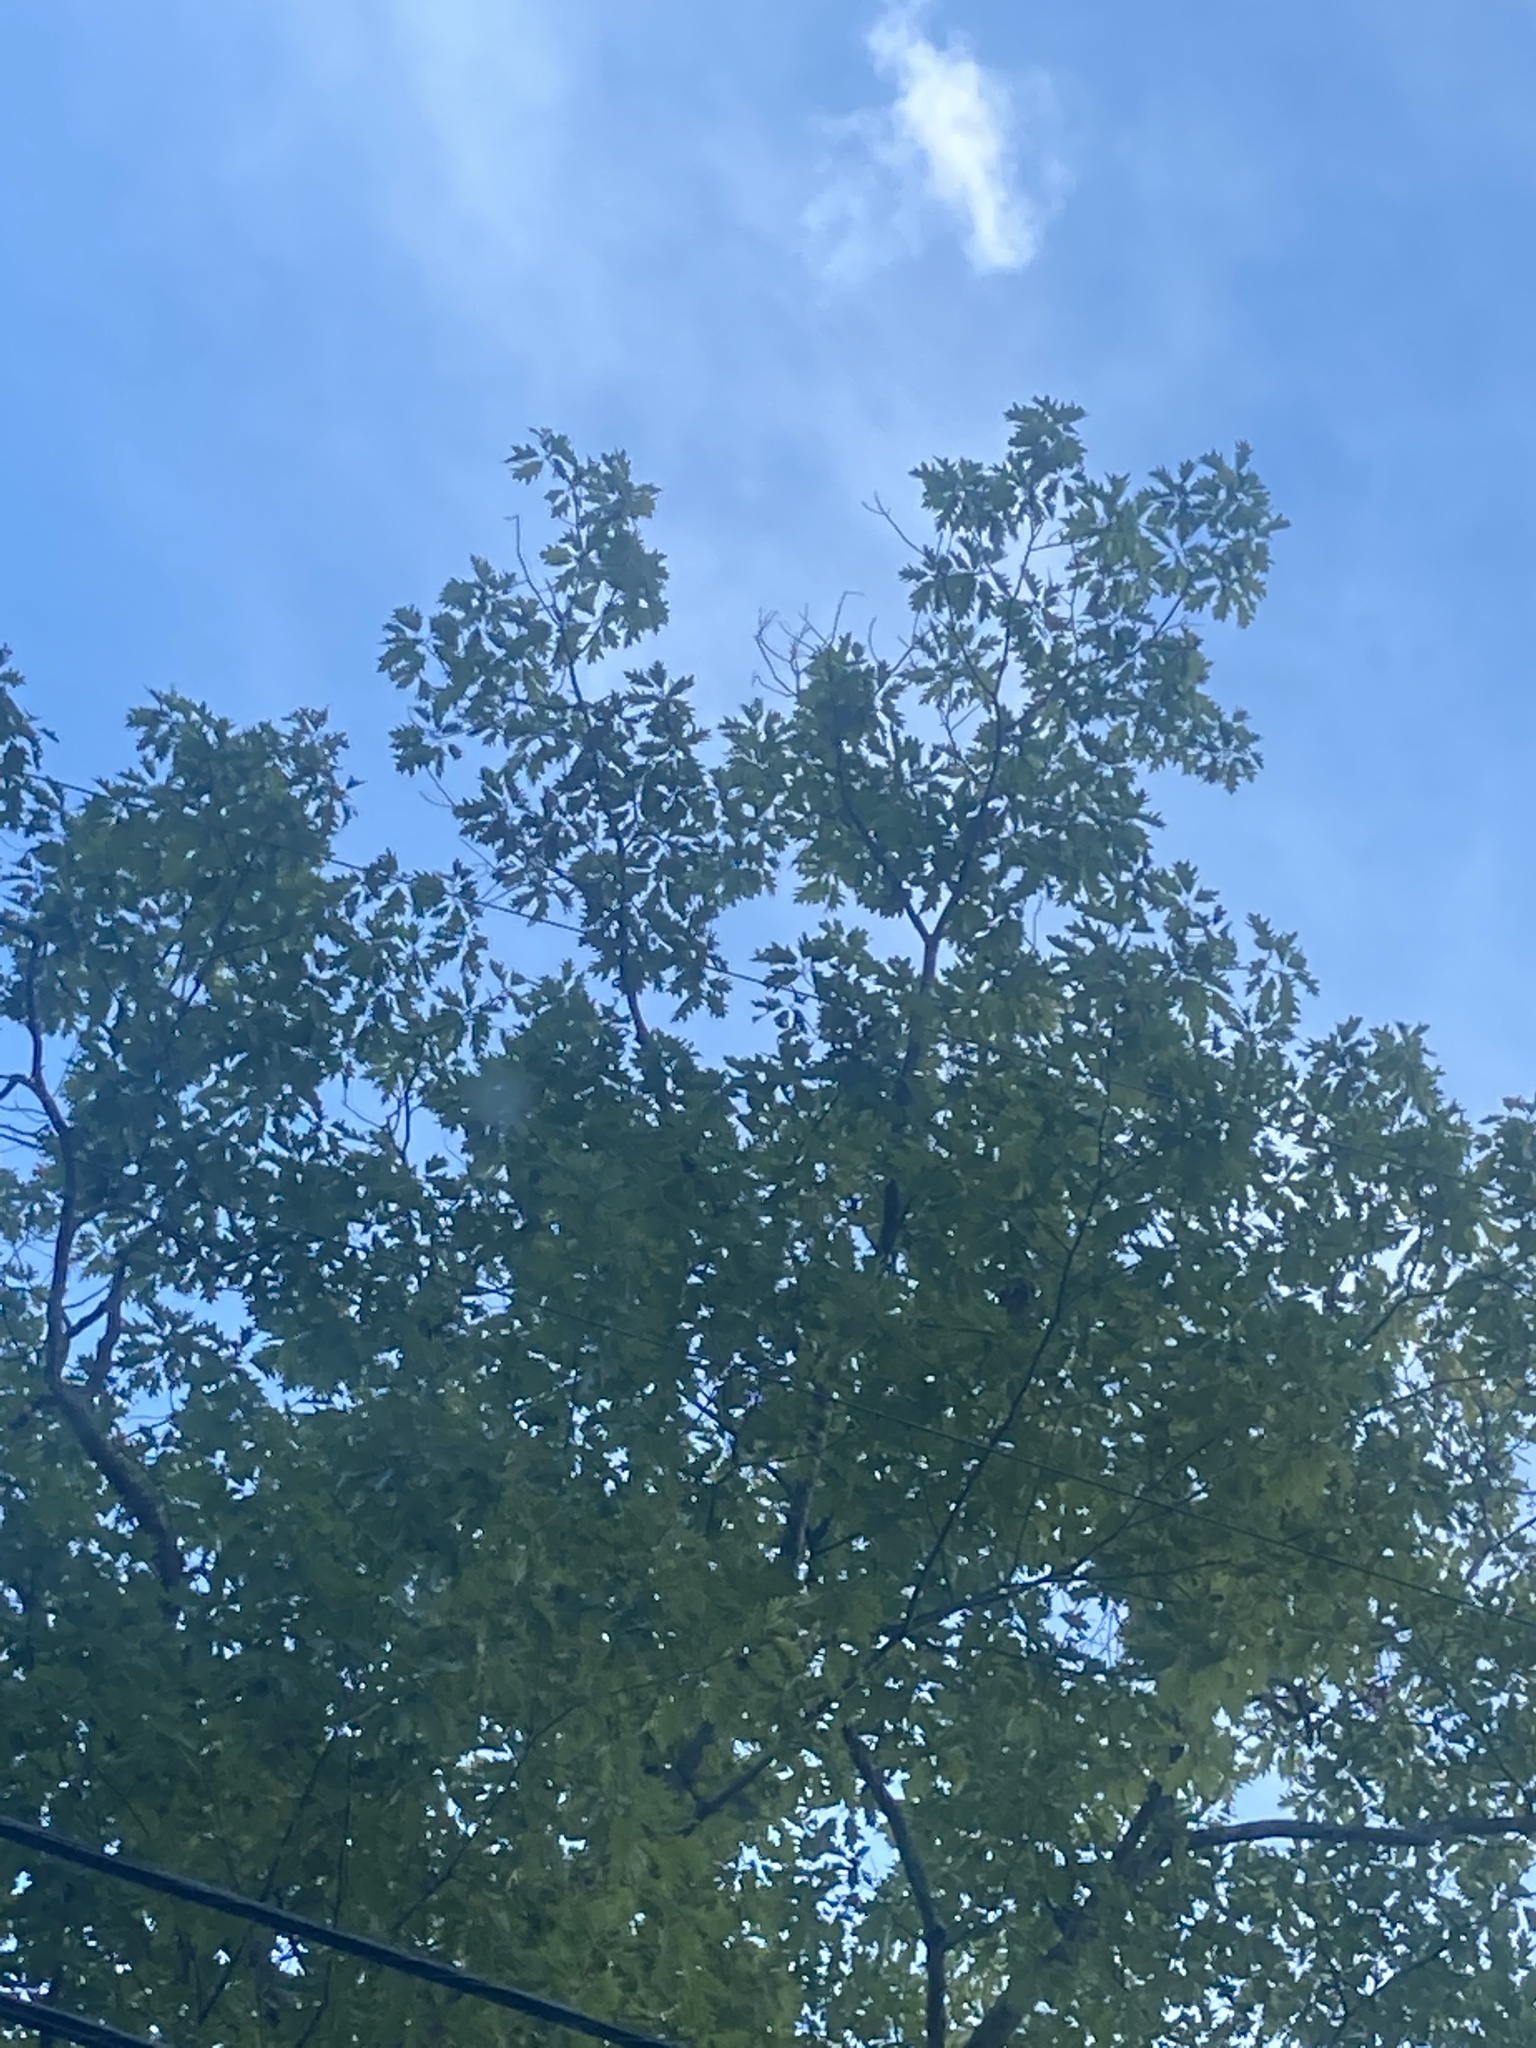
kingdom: Plantae
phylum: Tracheophyta
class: Magnoliopsida
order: Fagales
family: Fagaceae
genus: Quercus
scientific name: Quercus rubra
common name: Red oak
